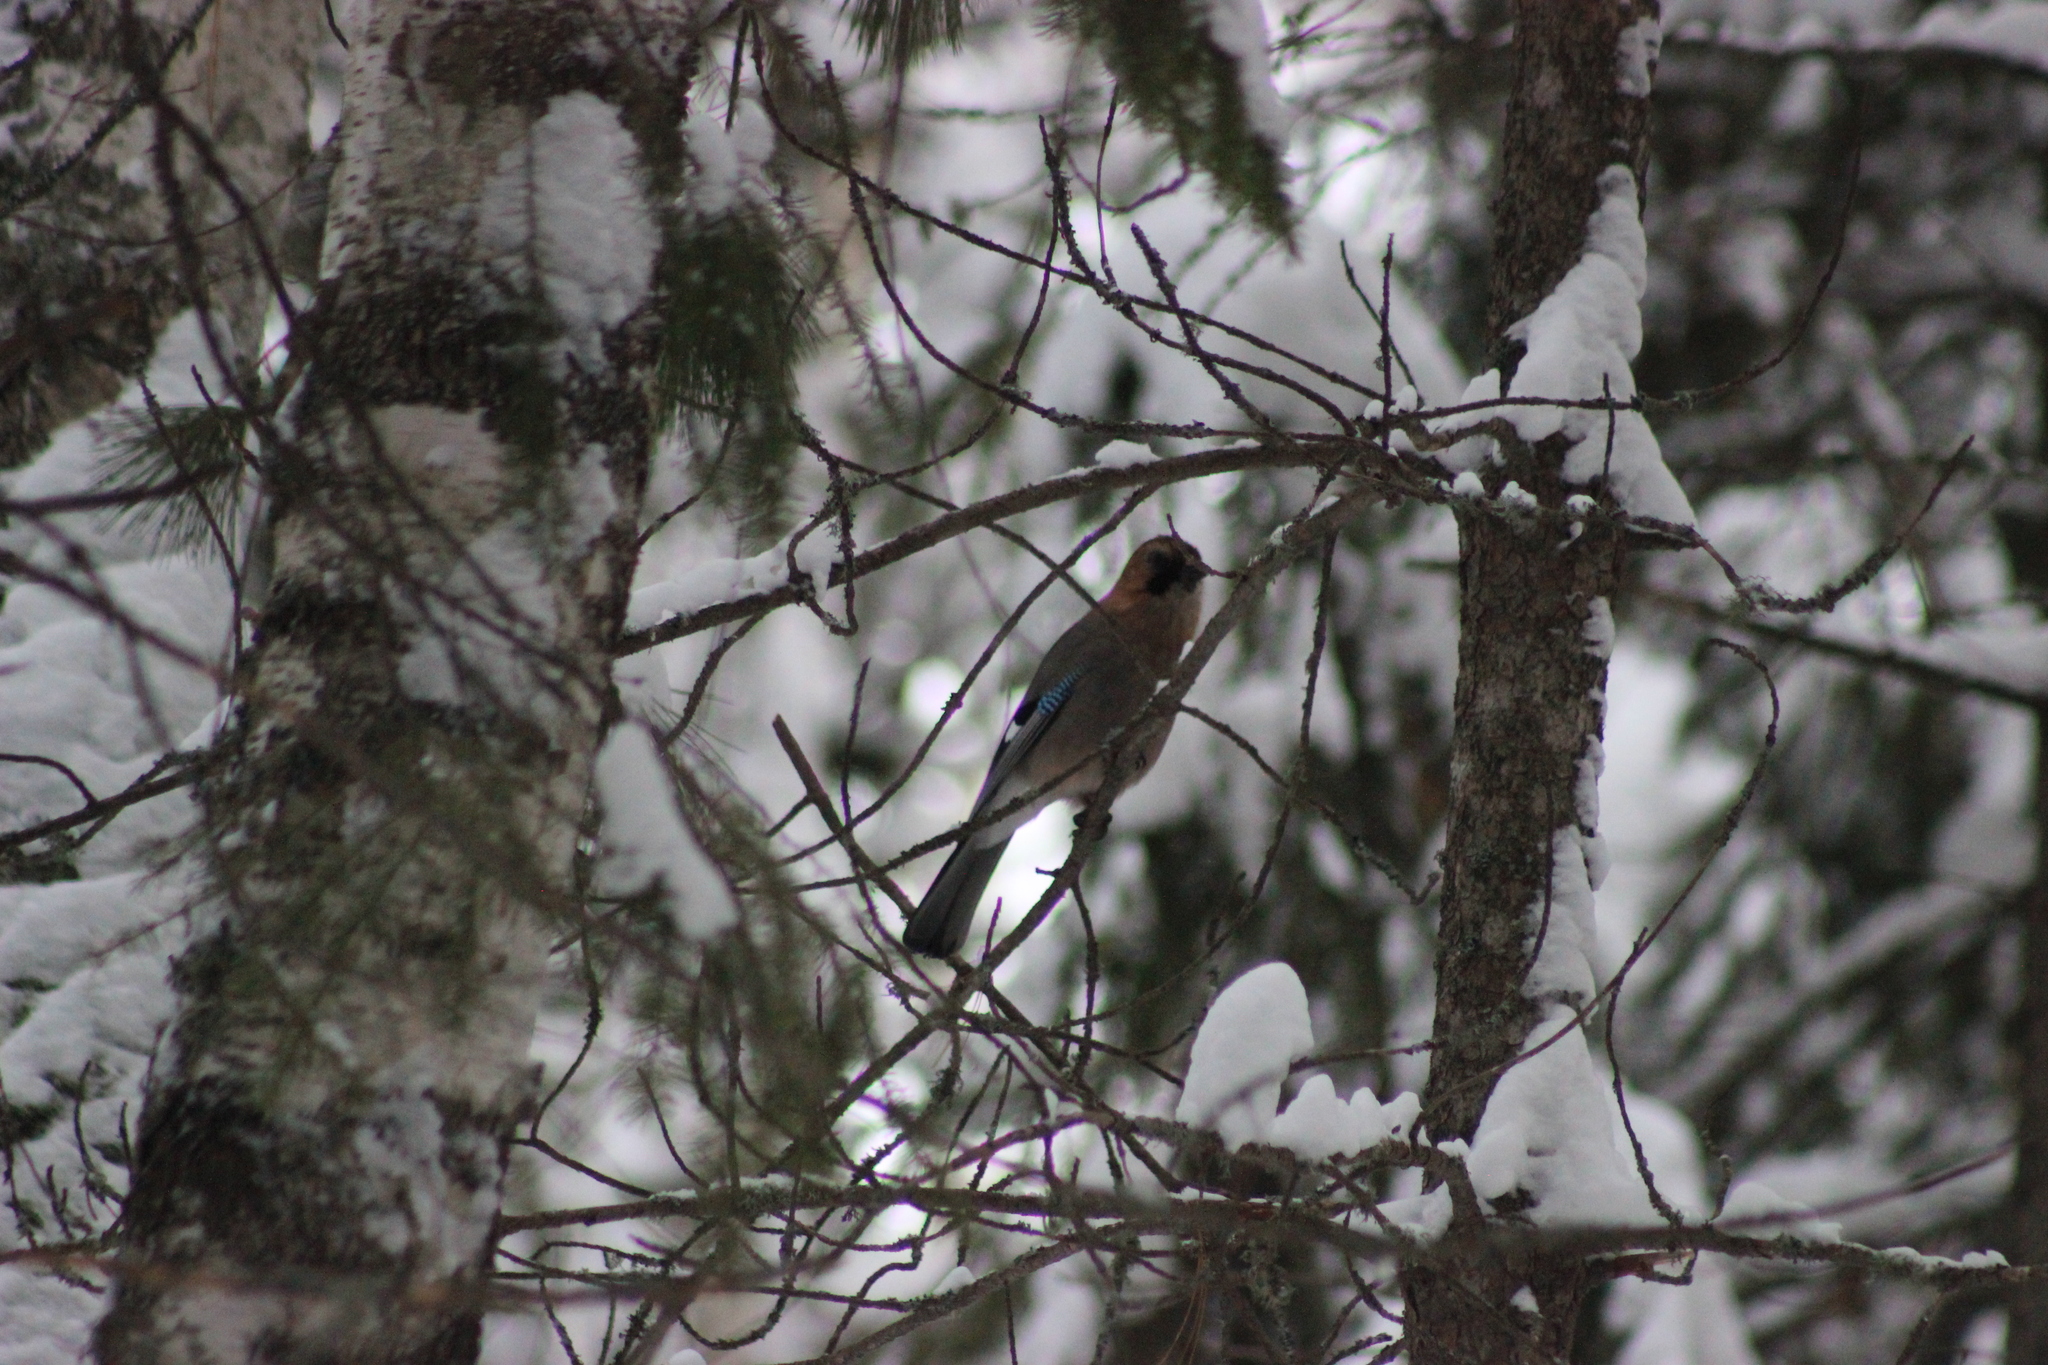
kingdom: Animalia
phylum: Chordata
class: Aves
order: Passeriformes
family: Corvidae
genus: Garrulus
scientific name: Garrulus glandarius
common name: Eurasian jay
